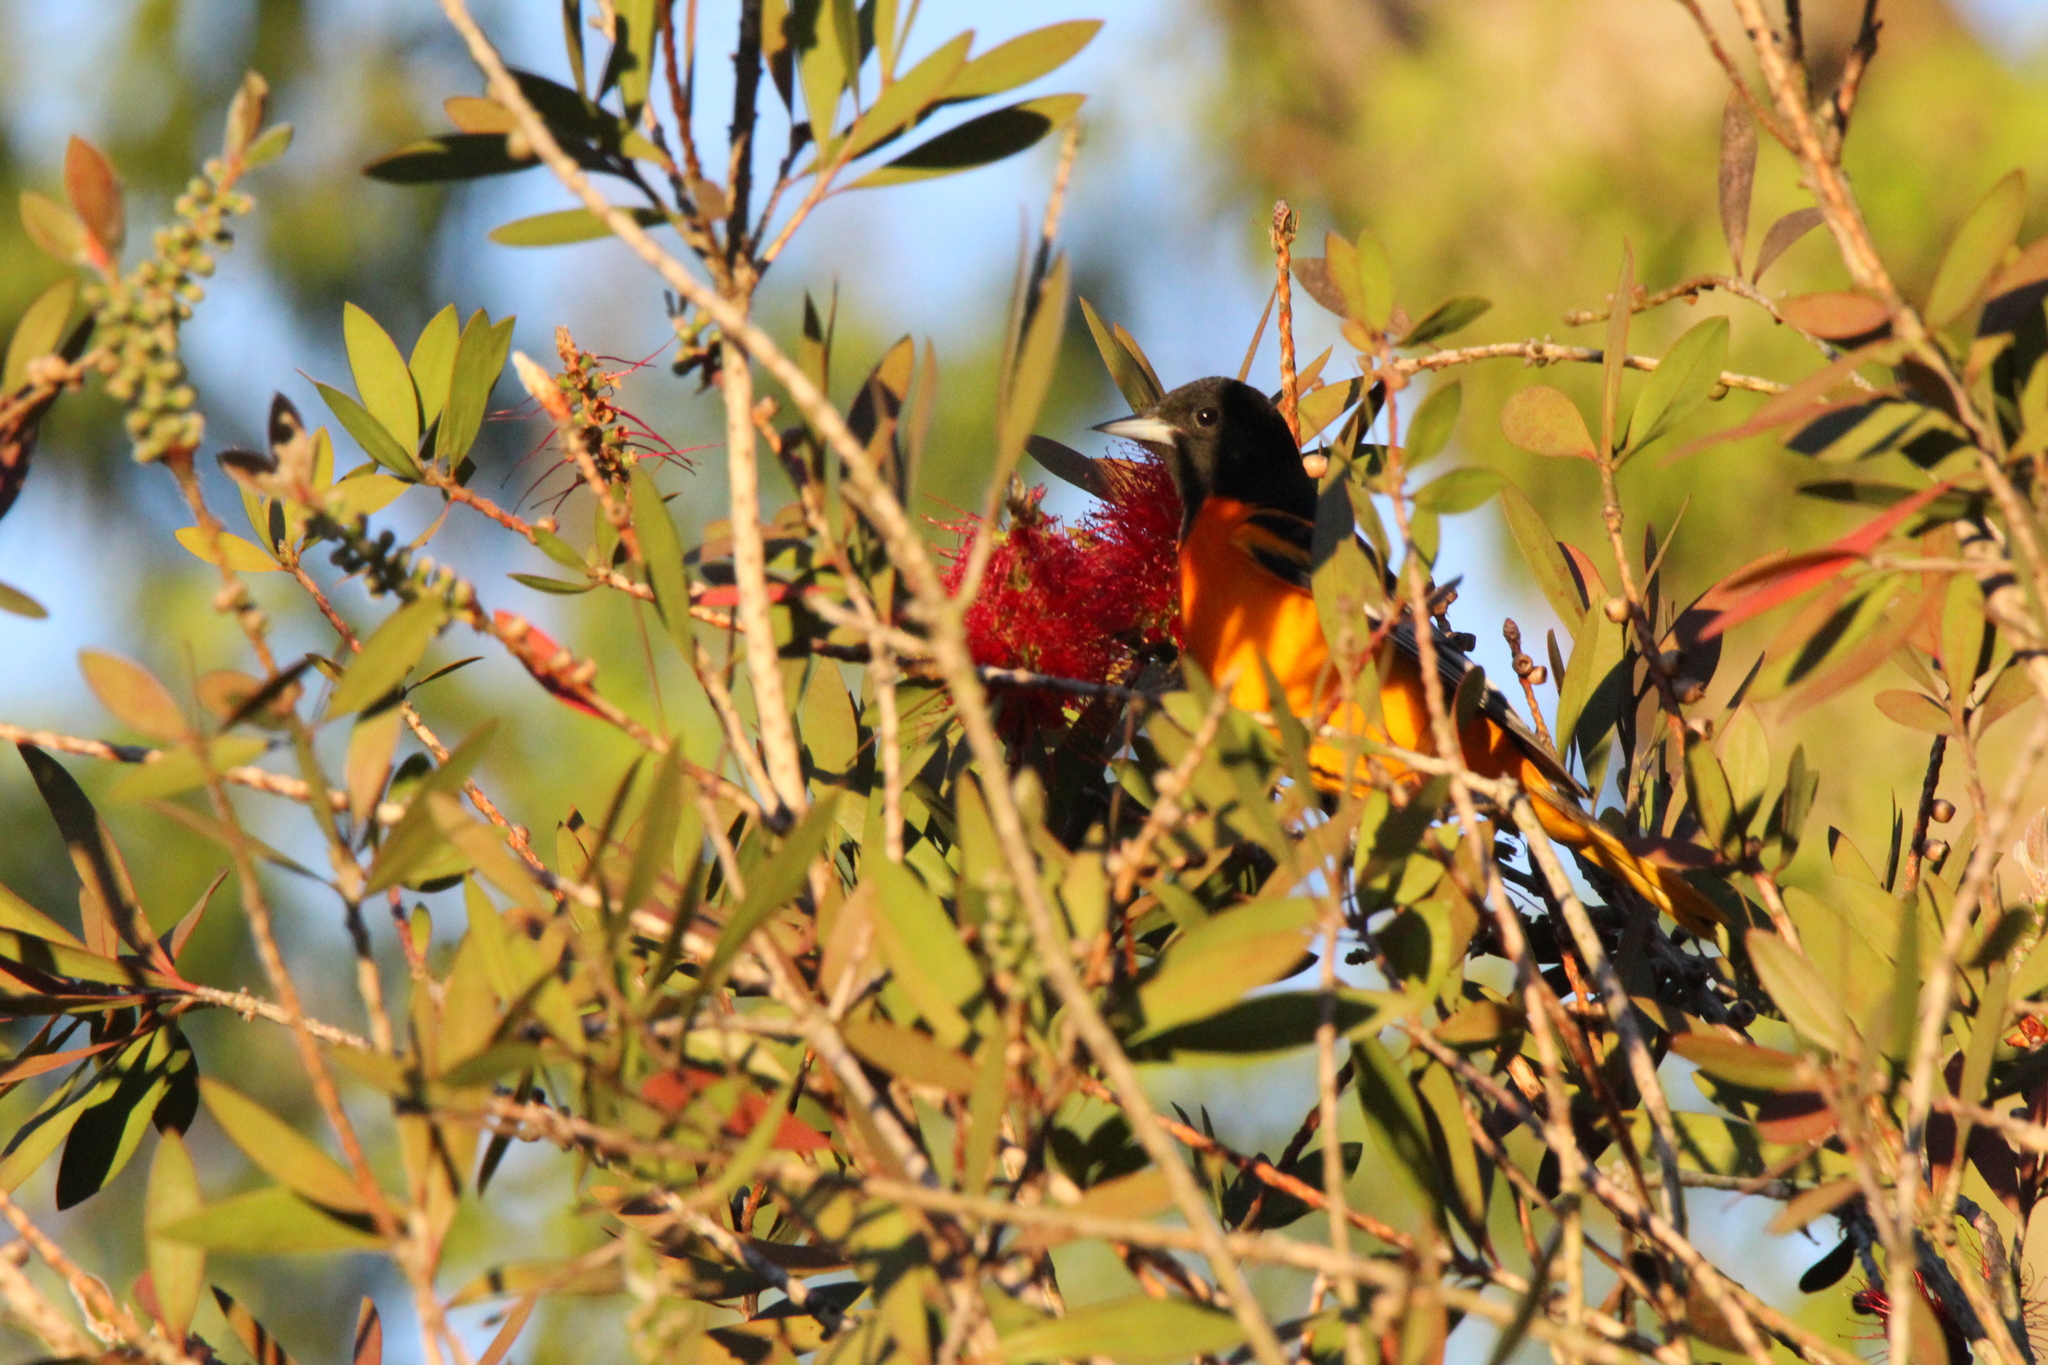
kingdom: Animalia
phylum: Chordata
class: Aves
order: Passeriformes
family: Icteridae
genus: Icterus
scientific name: Icterus galbula
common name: Baltimore oriole
